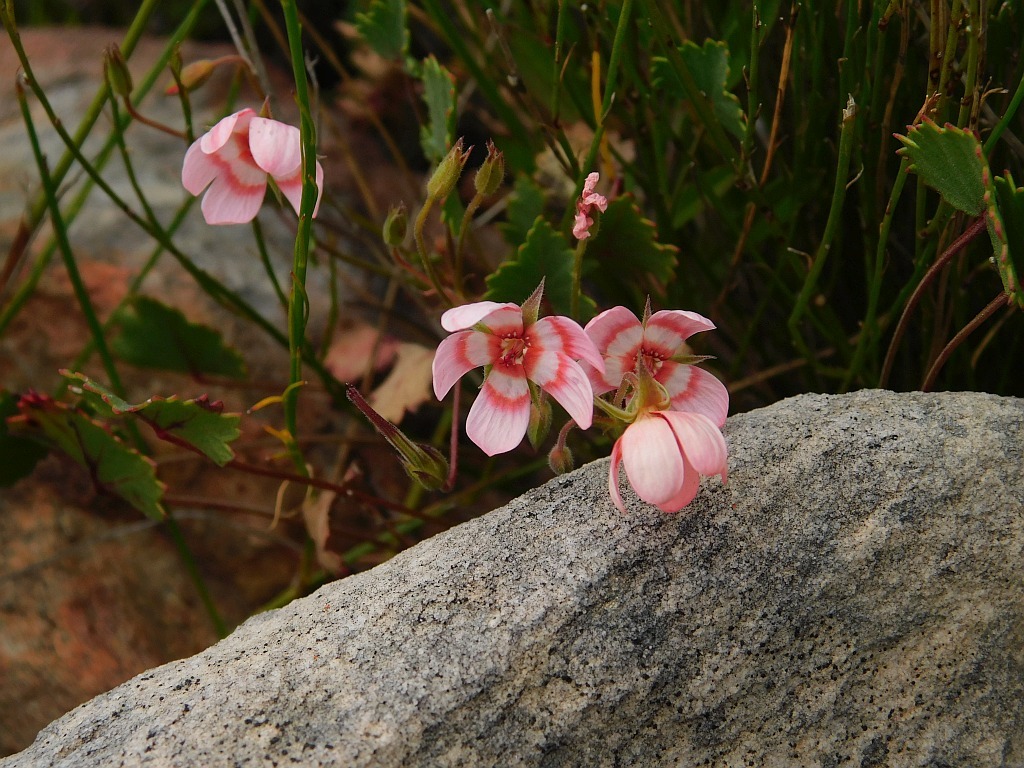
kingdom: Plantae
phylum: Tracheophyta
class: Magnoliopsida
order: Geraniales
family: Geraniaceae
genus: Pelargonium
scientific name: Pelargonium incarnatum
